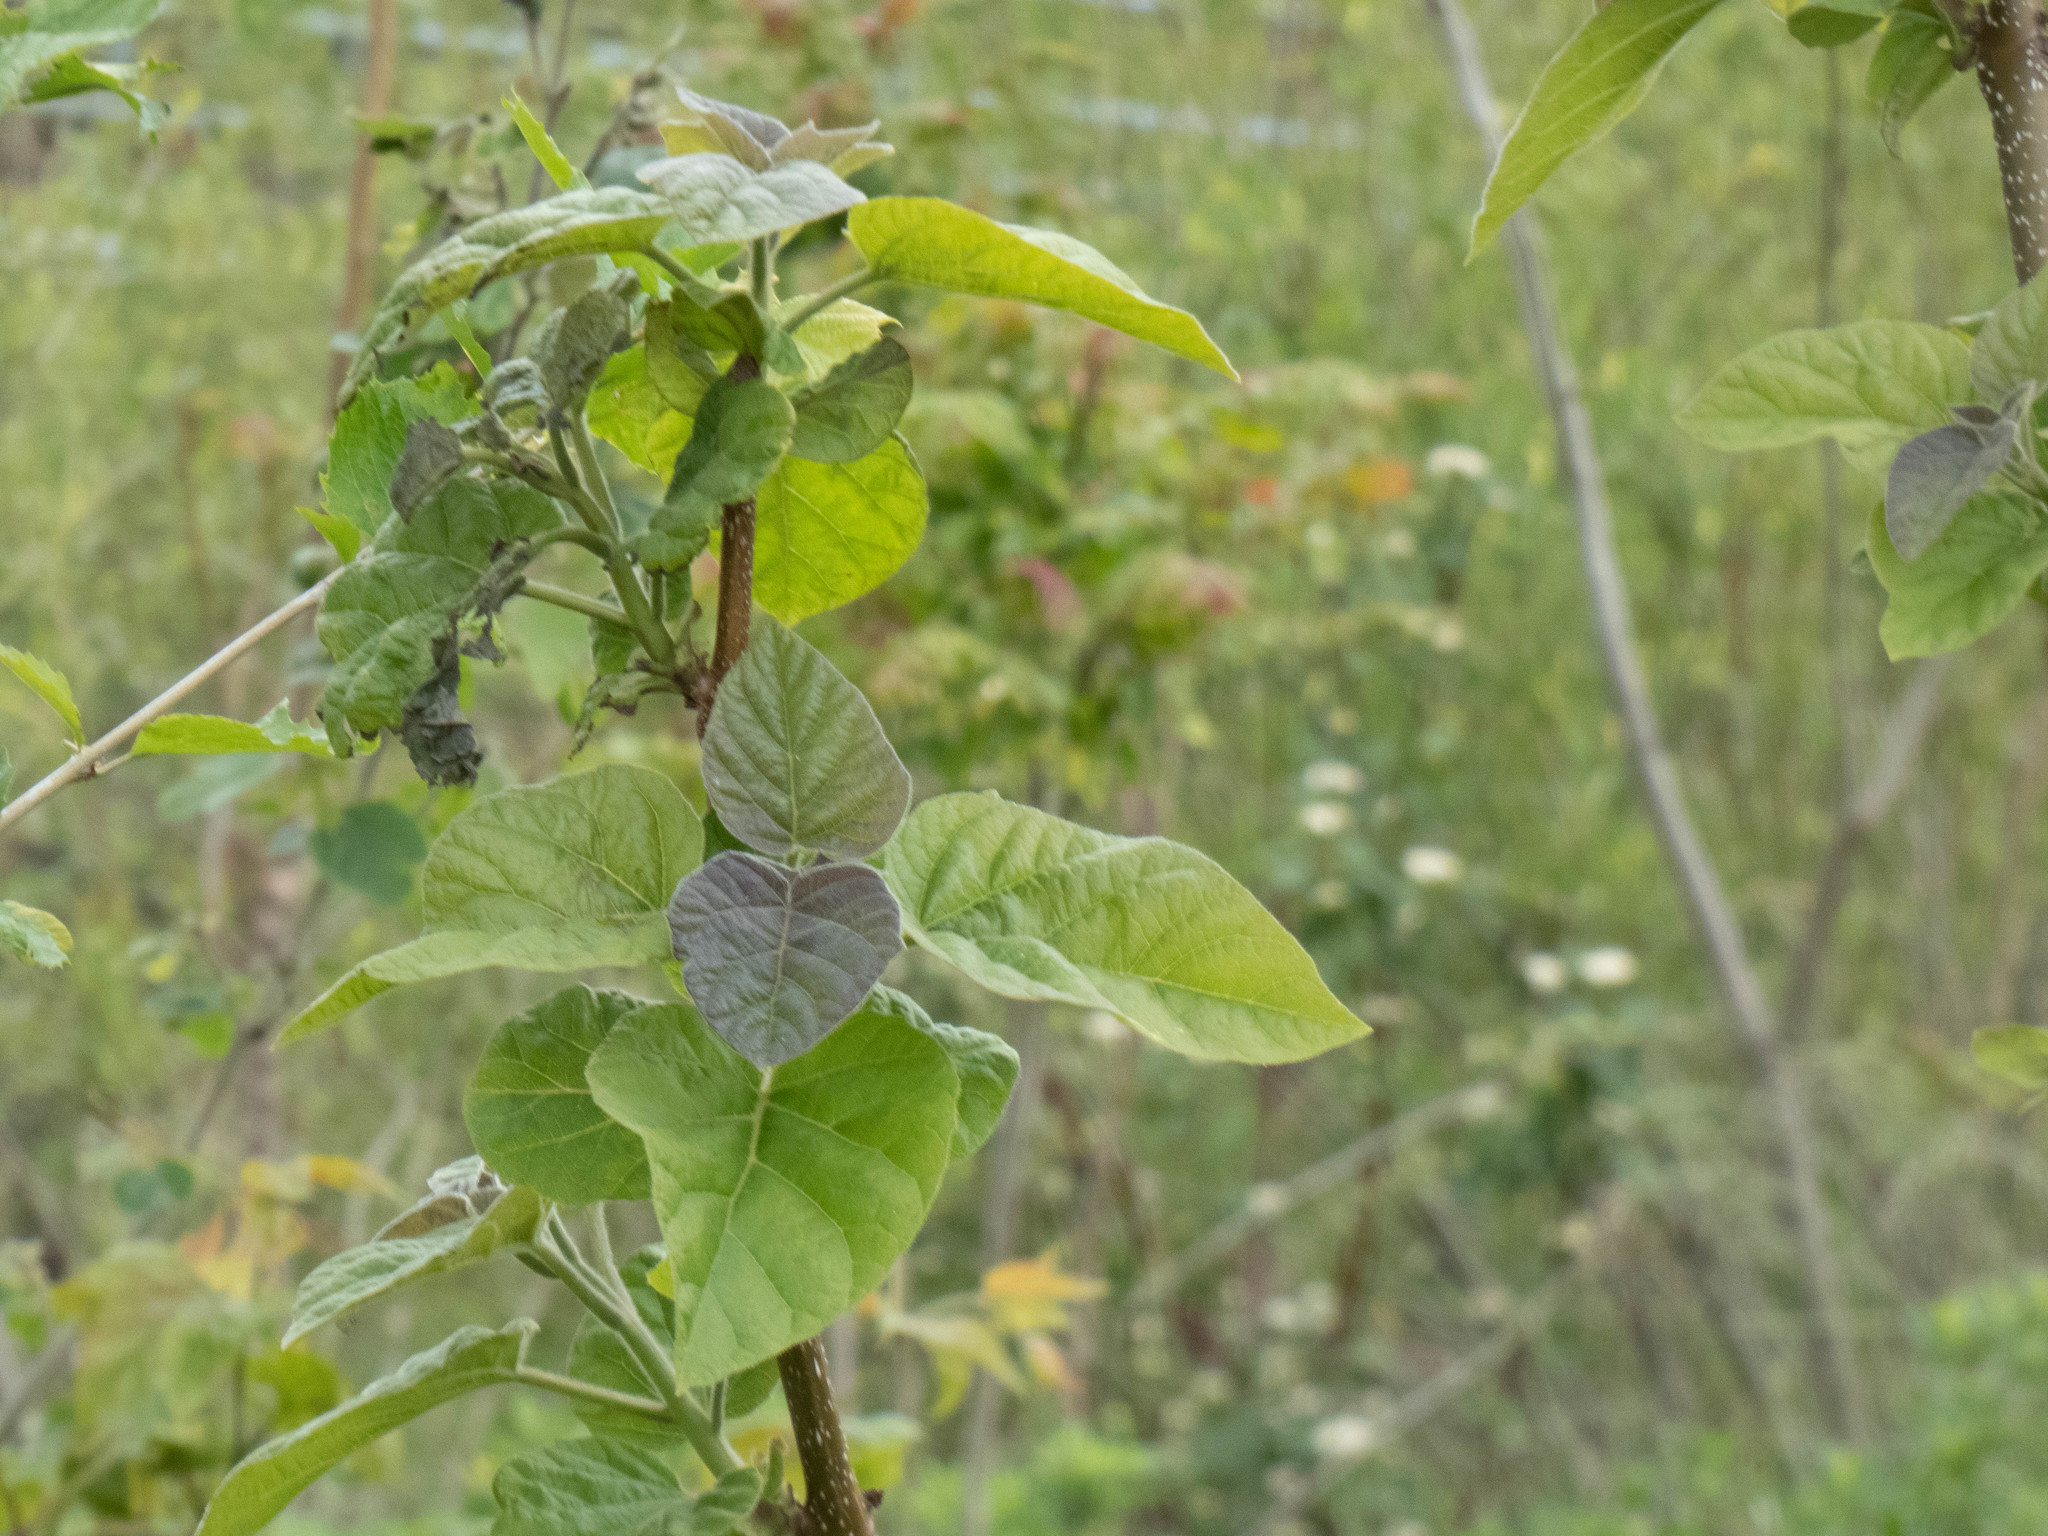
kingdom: Plantae
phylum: Tracheophyta
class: Magnoliopsida
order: Lamiales
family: Paulowniaceae
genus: Paulownia
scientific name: Paulownia tomentosa
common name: Foxglove-tree
